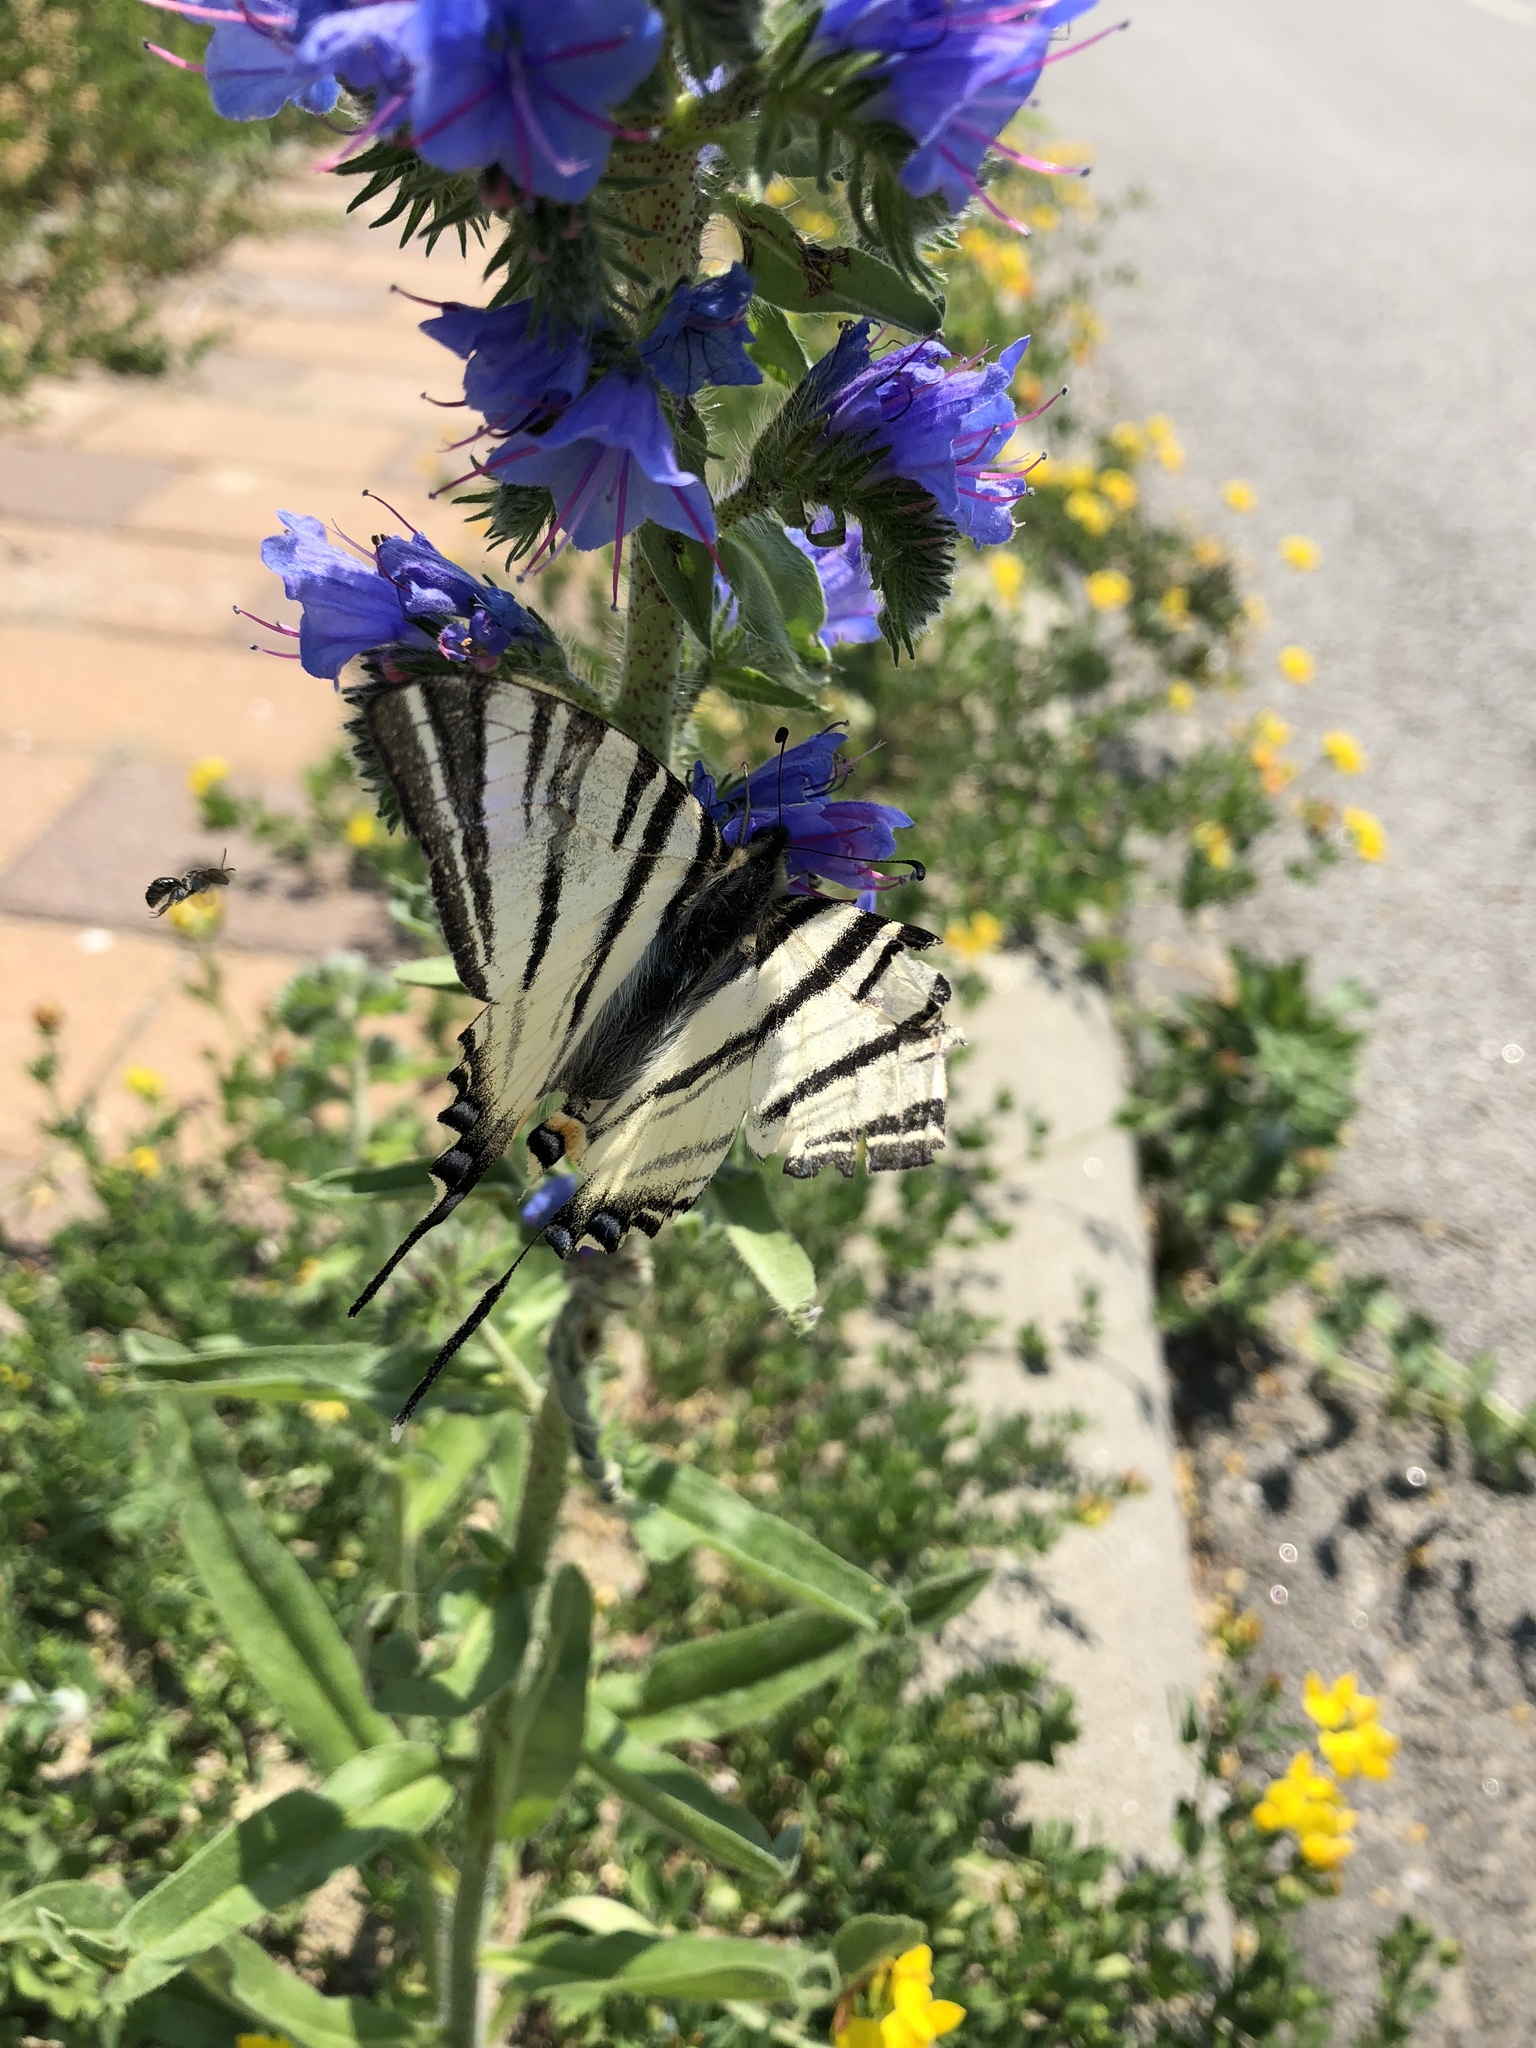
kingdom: Animalia
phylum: Arthropoda
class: Insecta
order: Lepidoptera
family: Papilionidae
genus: Iphiclides
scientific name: Iphiclides podalirius
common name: Scarce swallowtail
